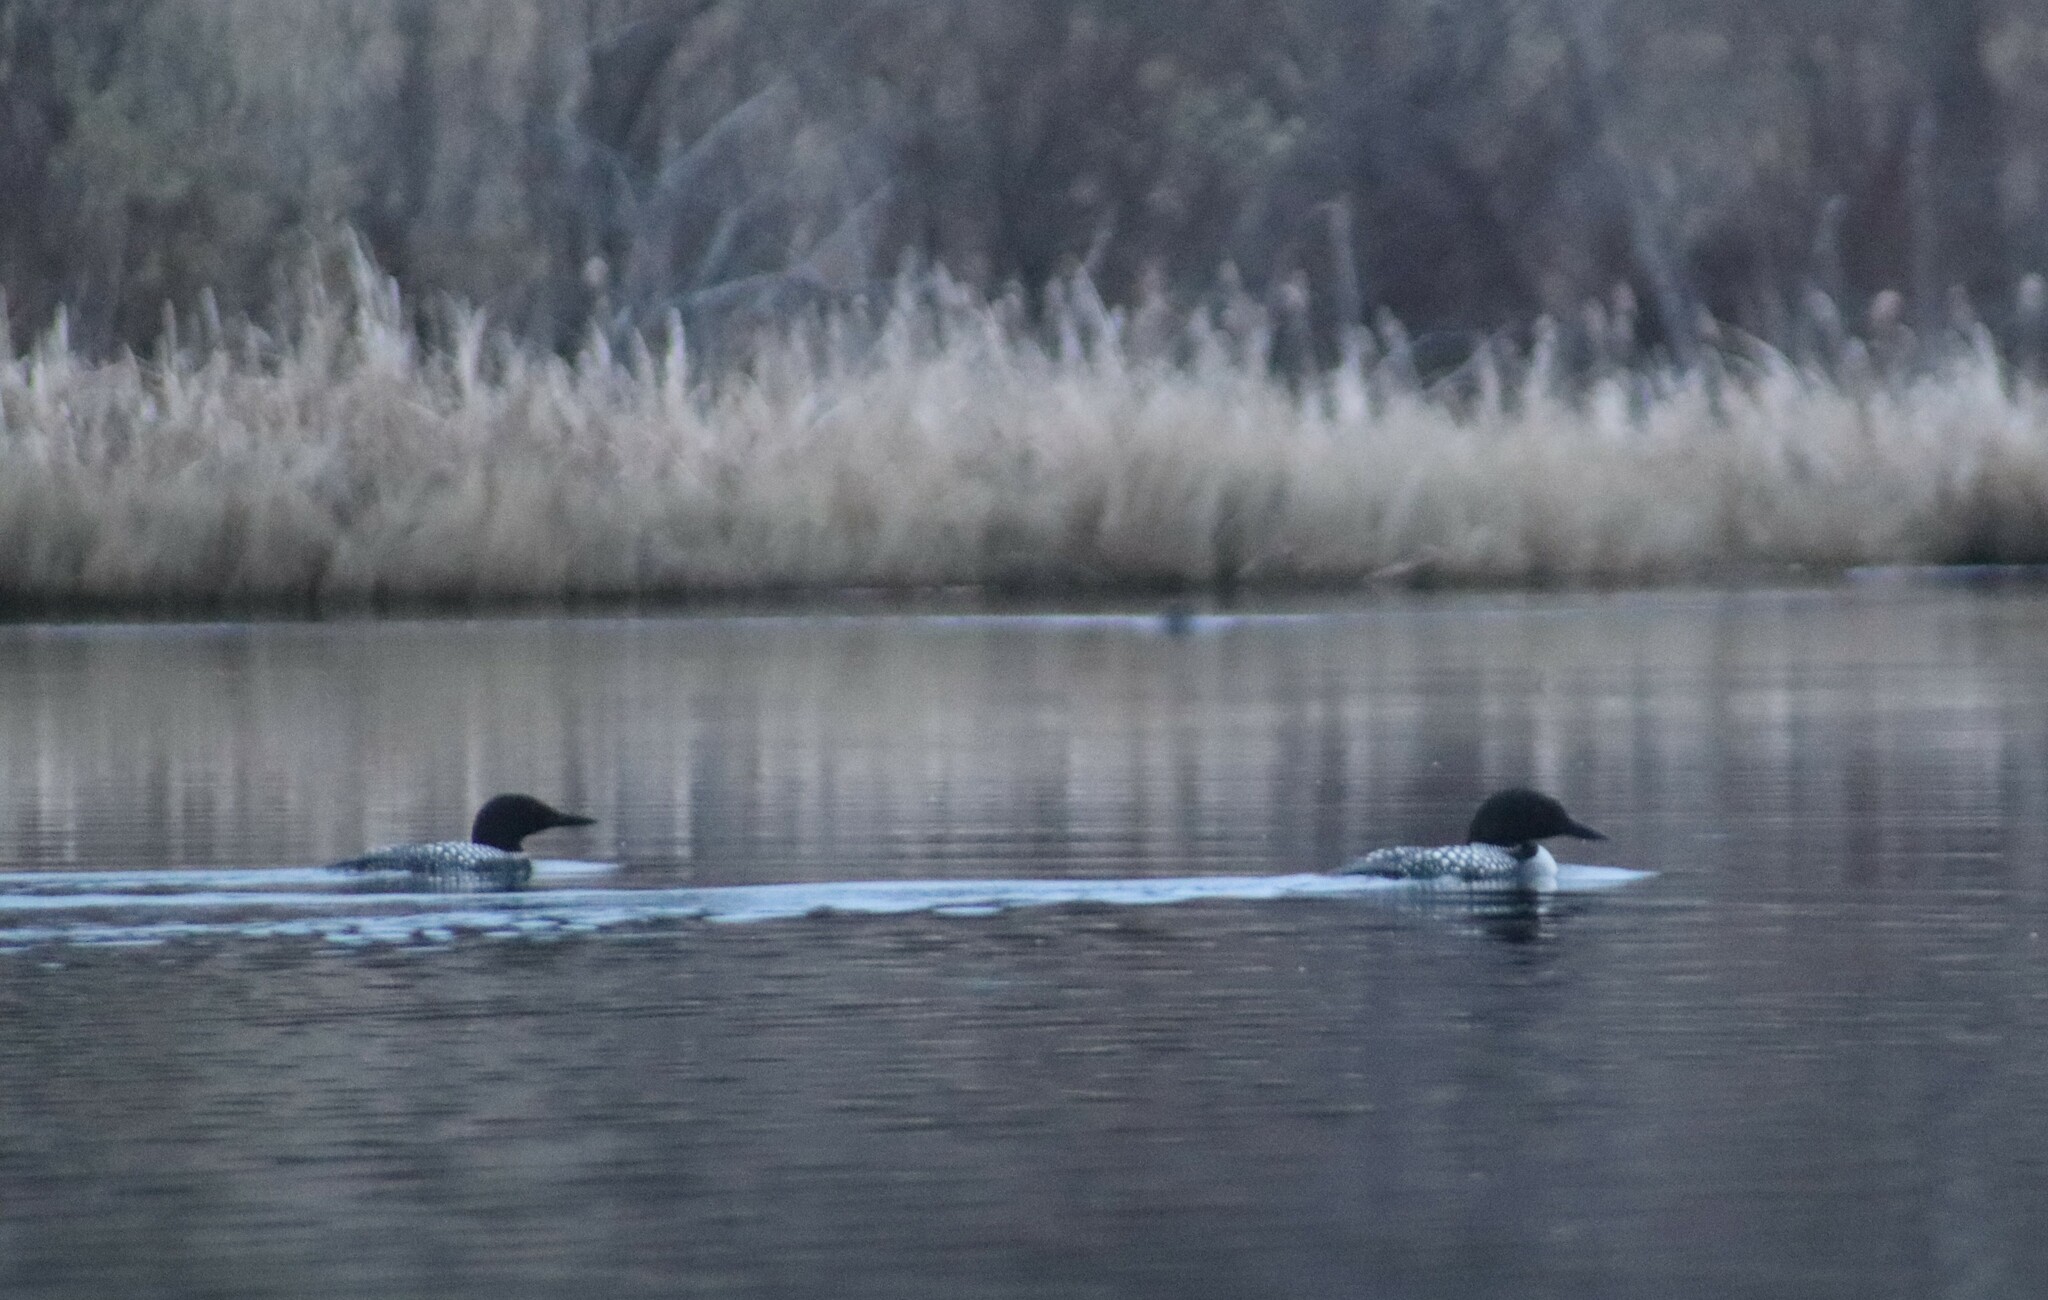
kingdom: Animalia
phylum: Chordata
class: Aves
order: Gaviiformes
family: Gaviidae
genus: Gavia
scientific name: Gavia immer
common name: Common loon
